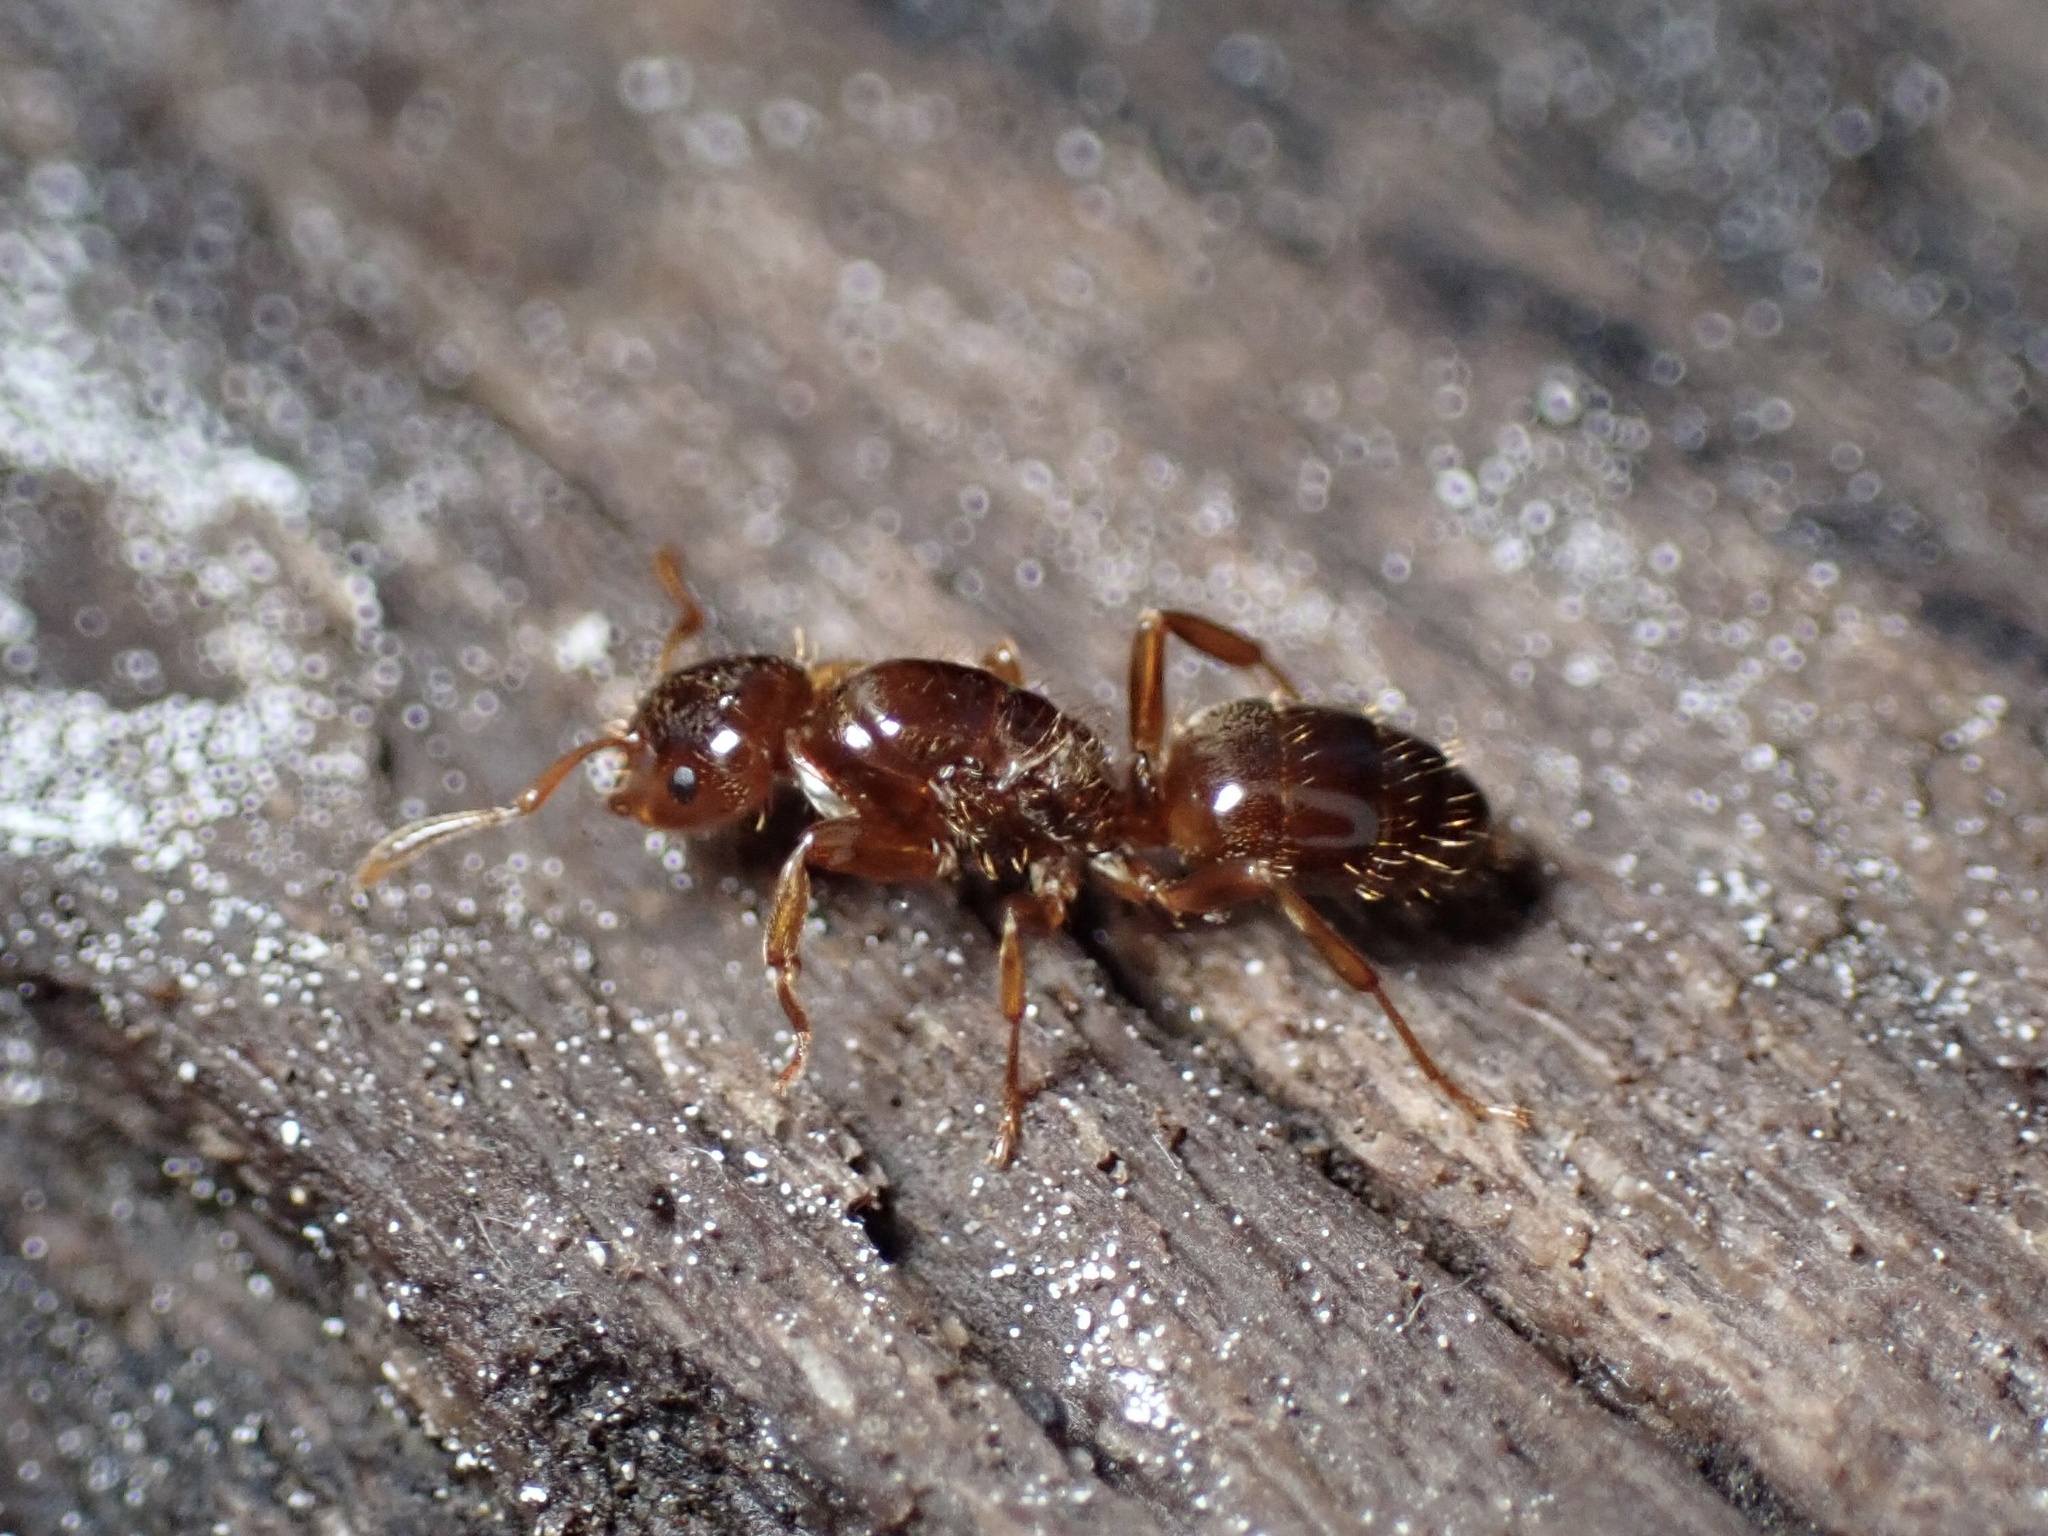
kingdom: Animalia
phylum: Arthropoda
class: Insecta
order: Hymenoptera
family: Formicidae
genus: Lasius
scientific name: Lasius claviger
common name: Common citronella ant
